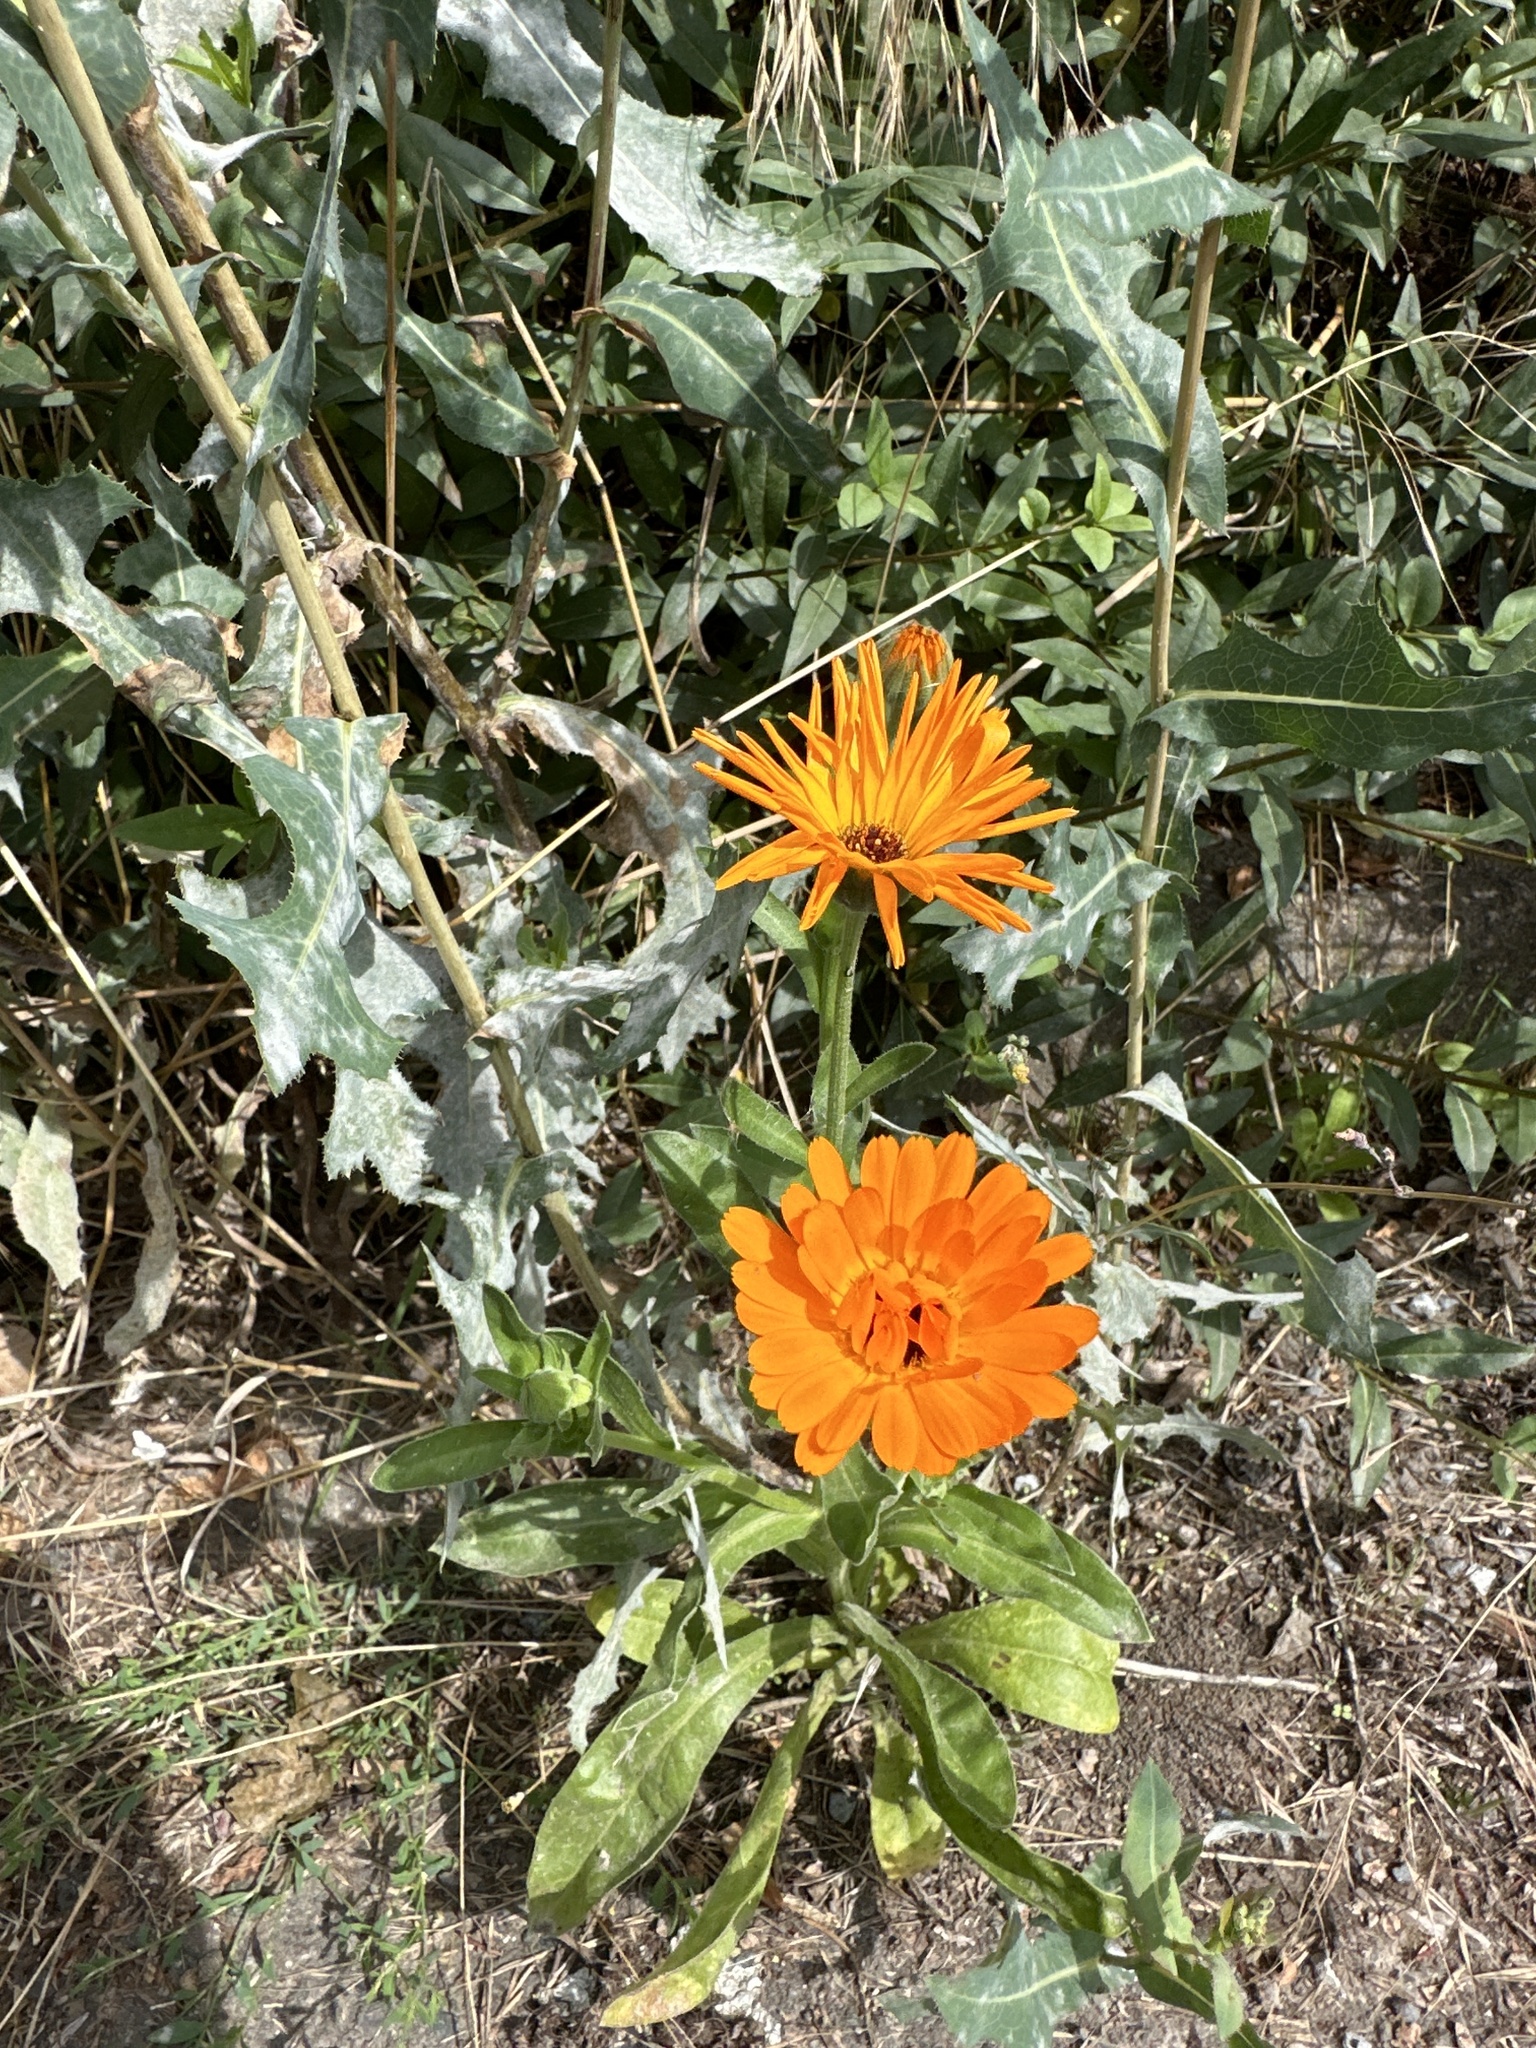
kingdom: Plantae
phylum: Tracheophyta
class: Magnoliopsida
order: Asterales
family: Asteraceae
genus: Calendula
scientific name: Calendula officinalis
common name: Pot marigold
